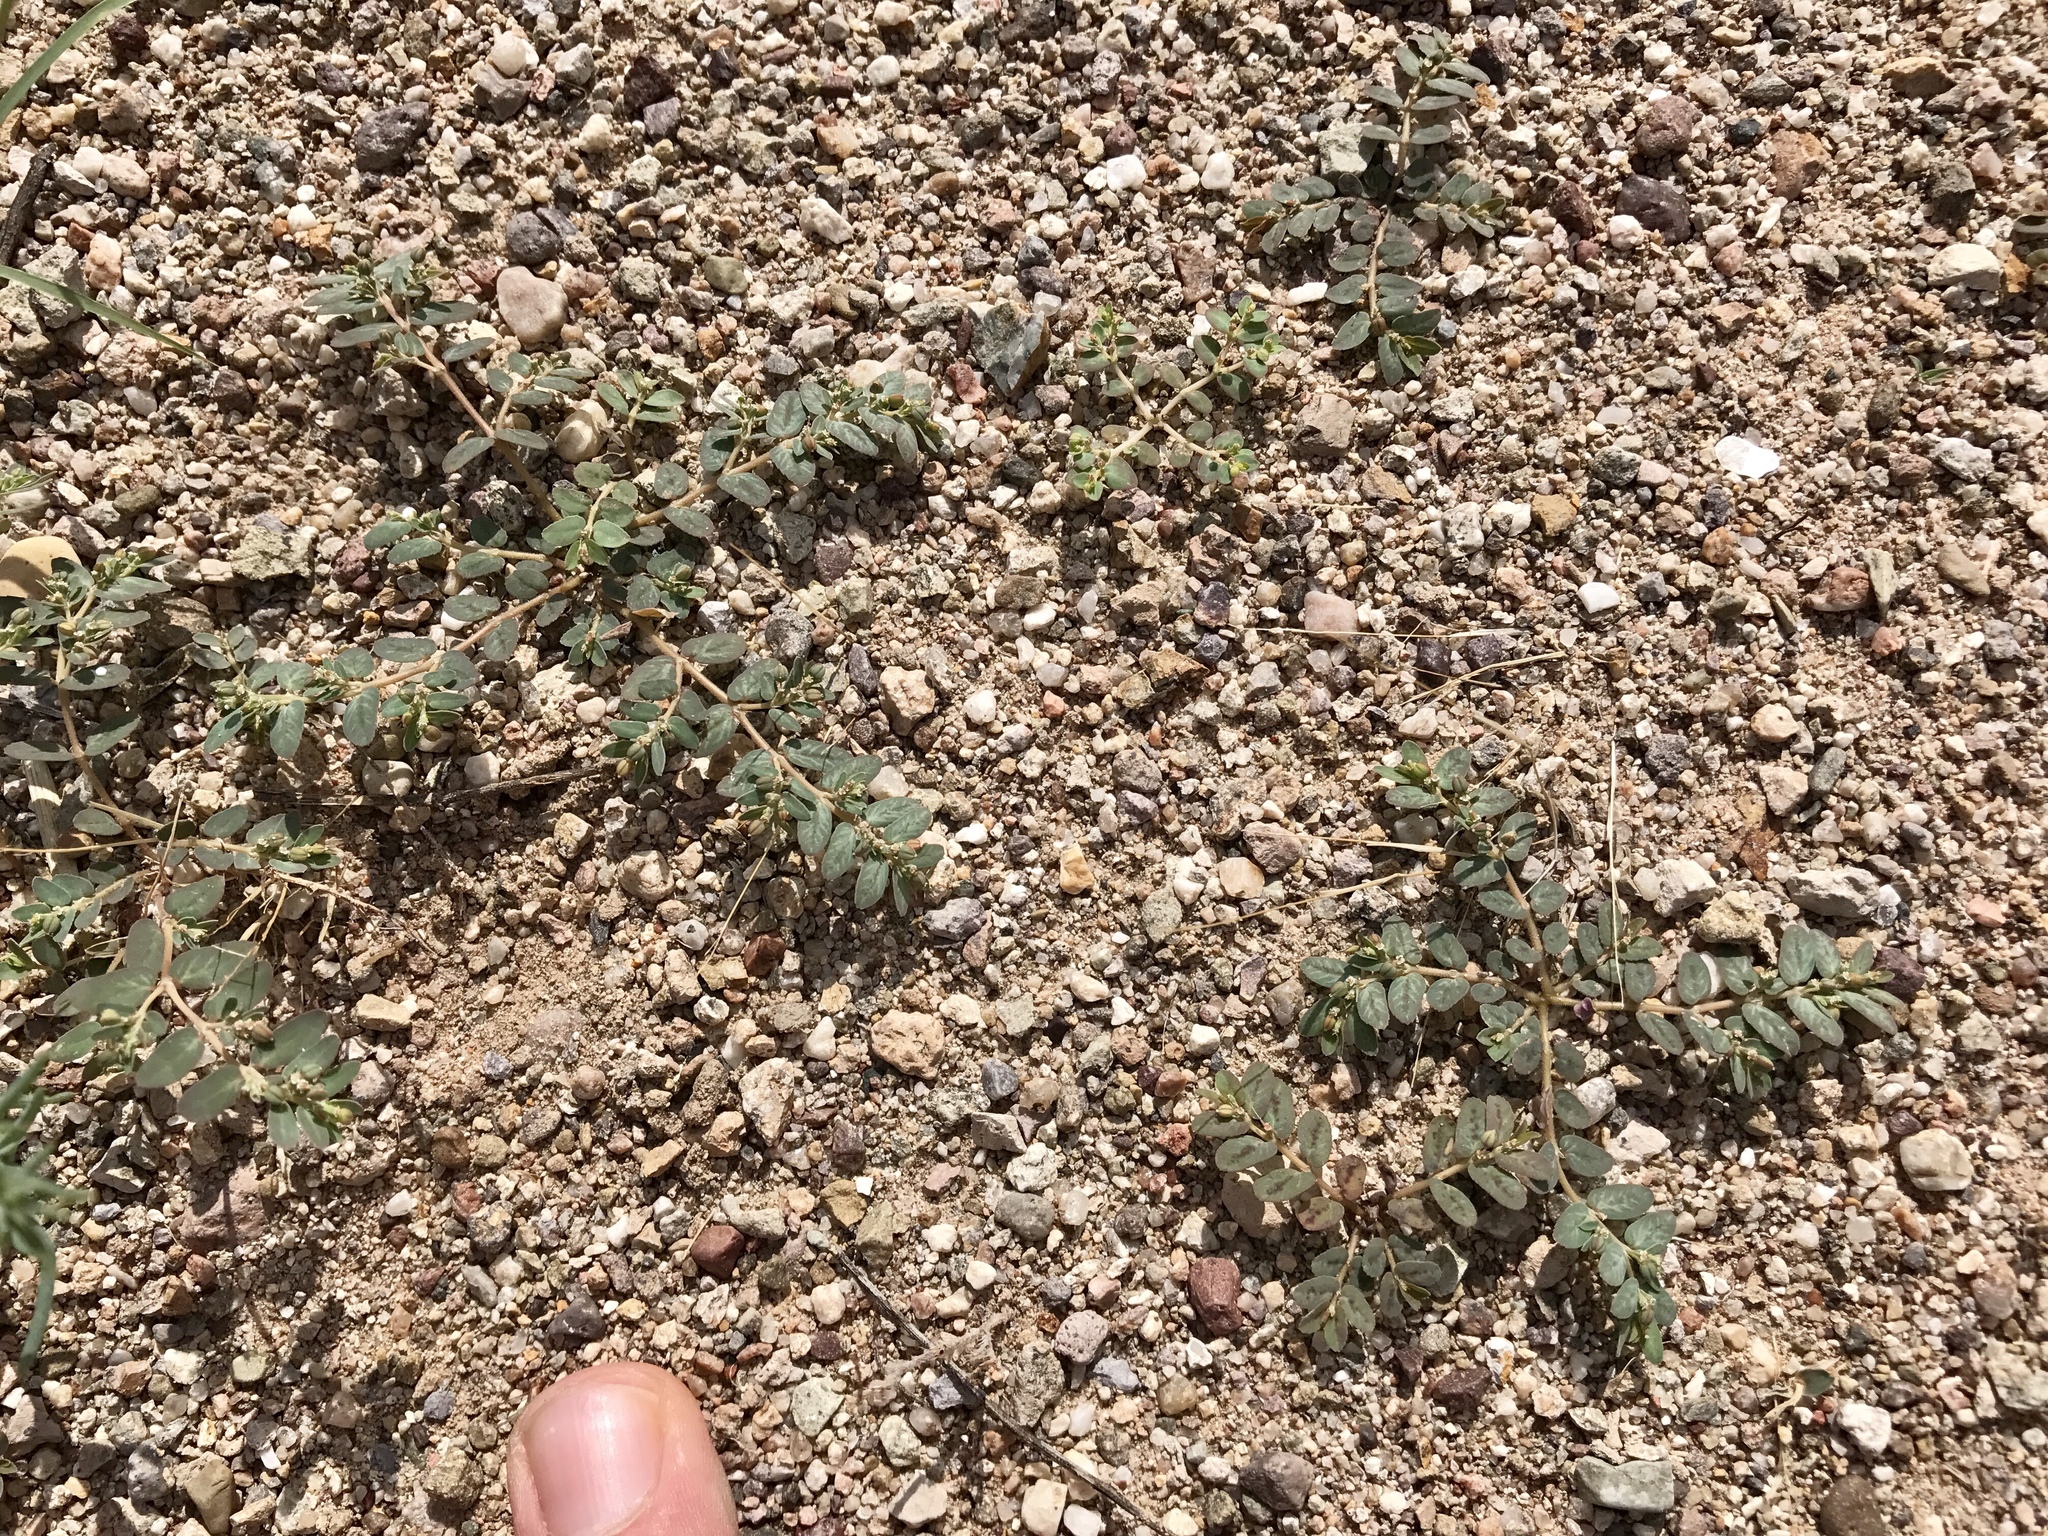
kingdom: Plantae
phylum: Tracheophyta
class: Magnoliopsida
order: Malpighiales
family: Euphorbiaceae
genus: Euphorbia
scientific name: Euphorbia abramsiana
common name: Abram's spurge
